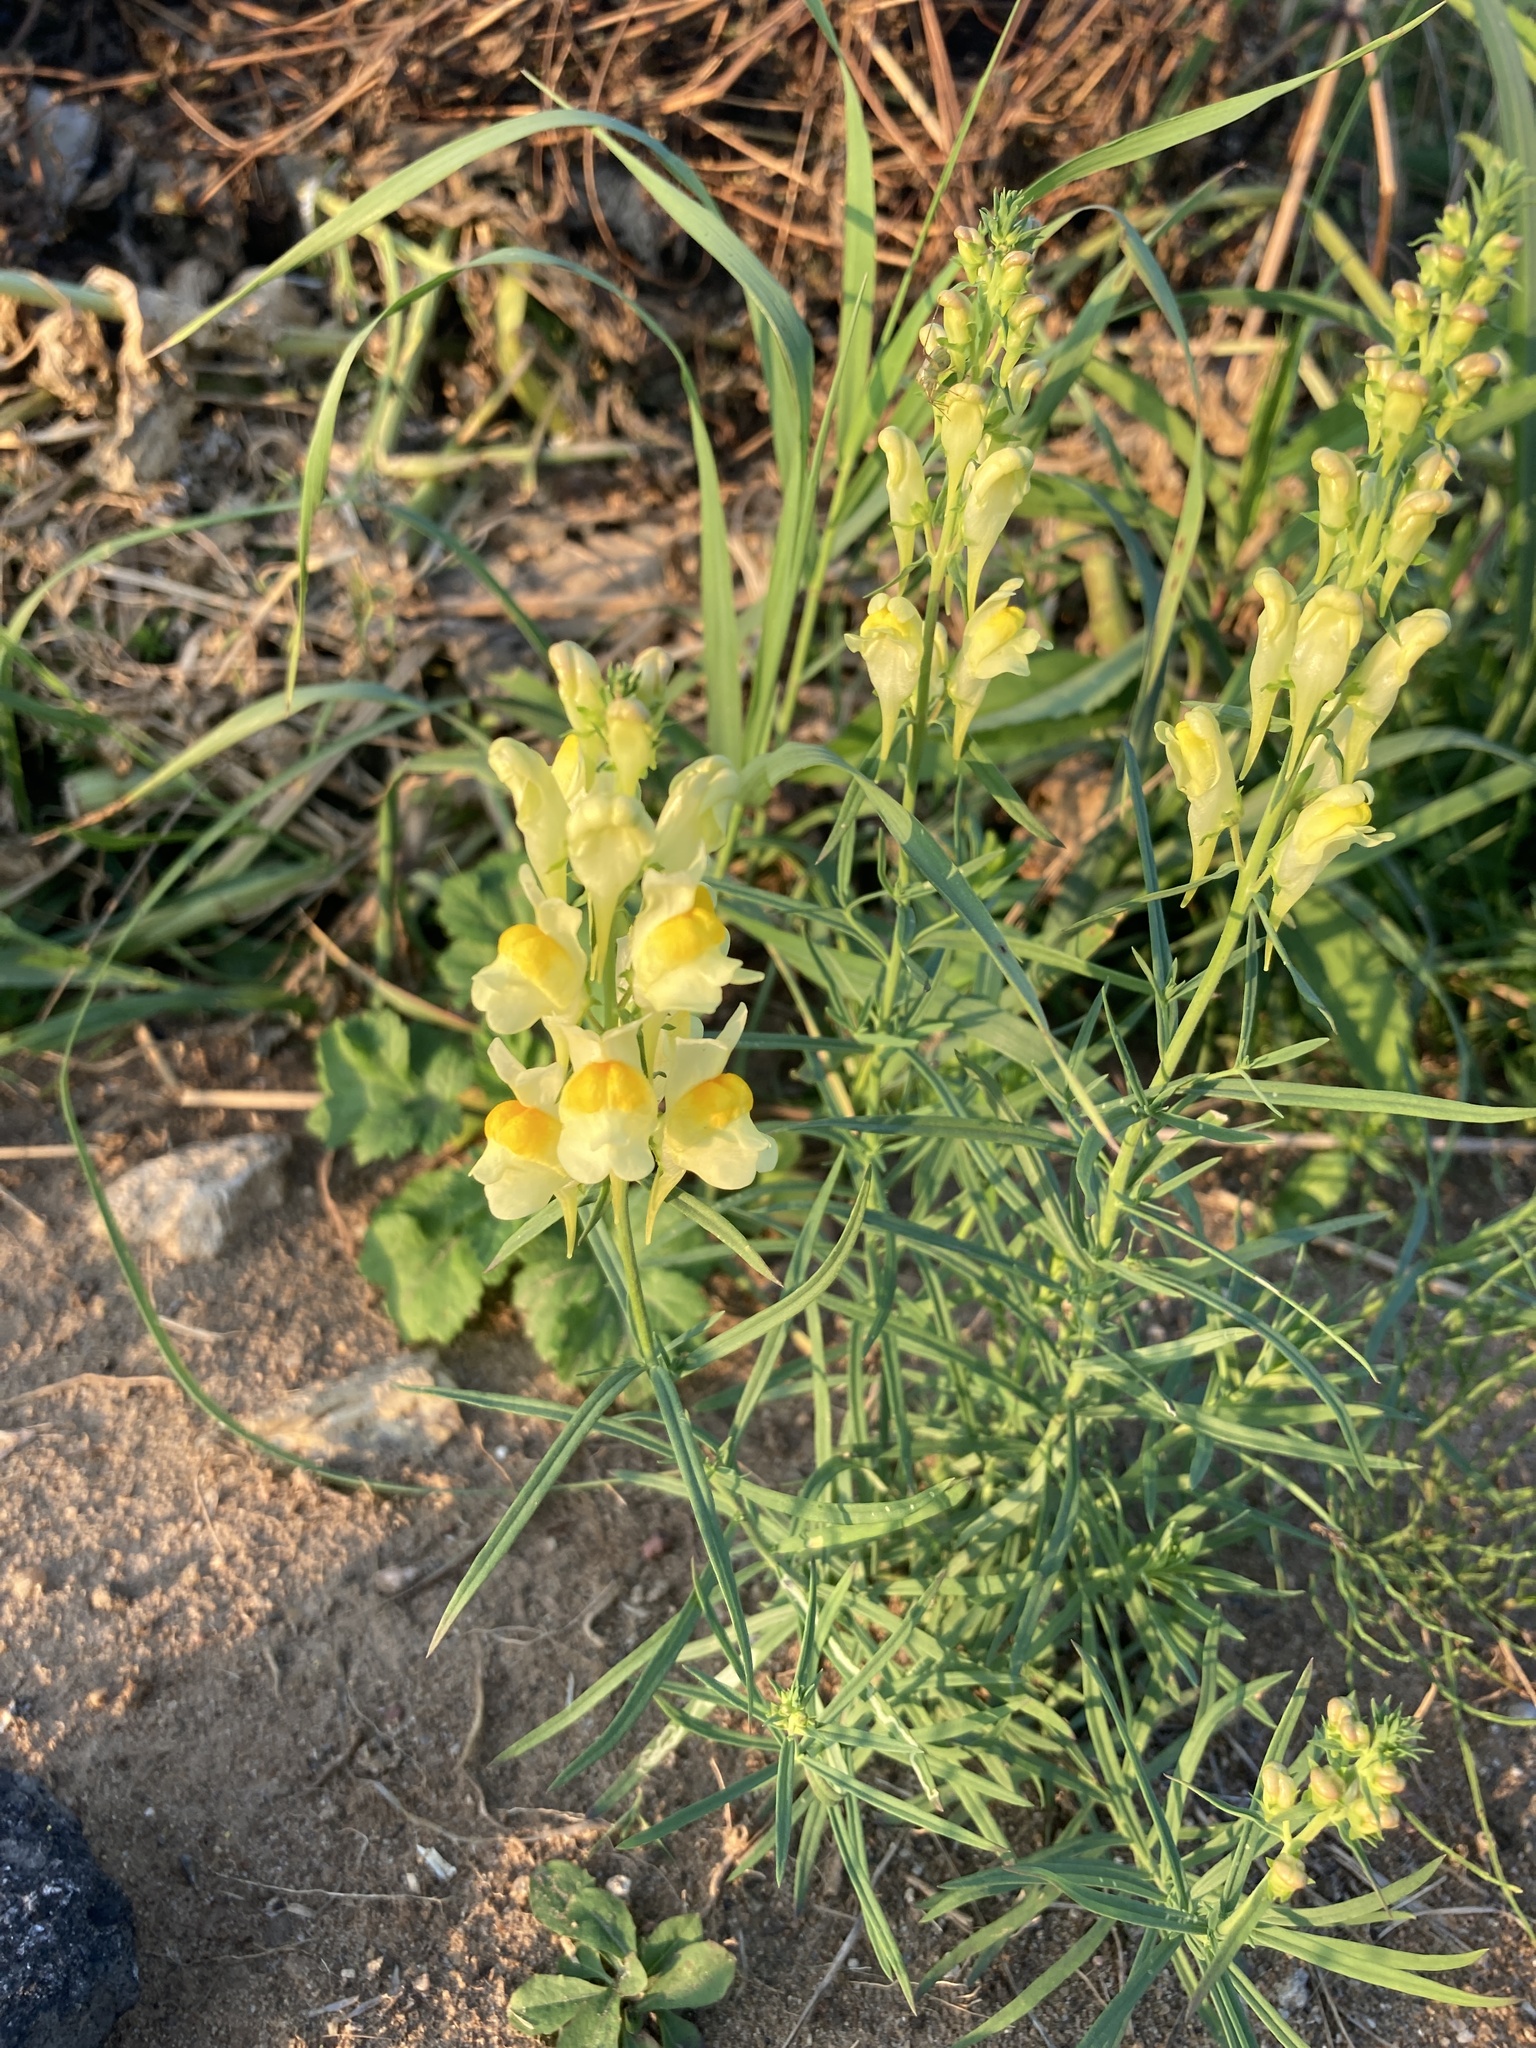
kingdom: Plantae
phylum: Tracheophyta
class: Magnoliopsida
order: Lamiales
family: Plantaginaceae
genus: Linaria
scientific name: Linaria vulgaris
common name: Butter and eggs
